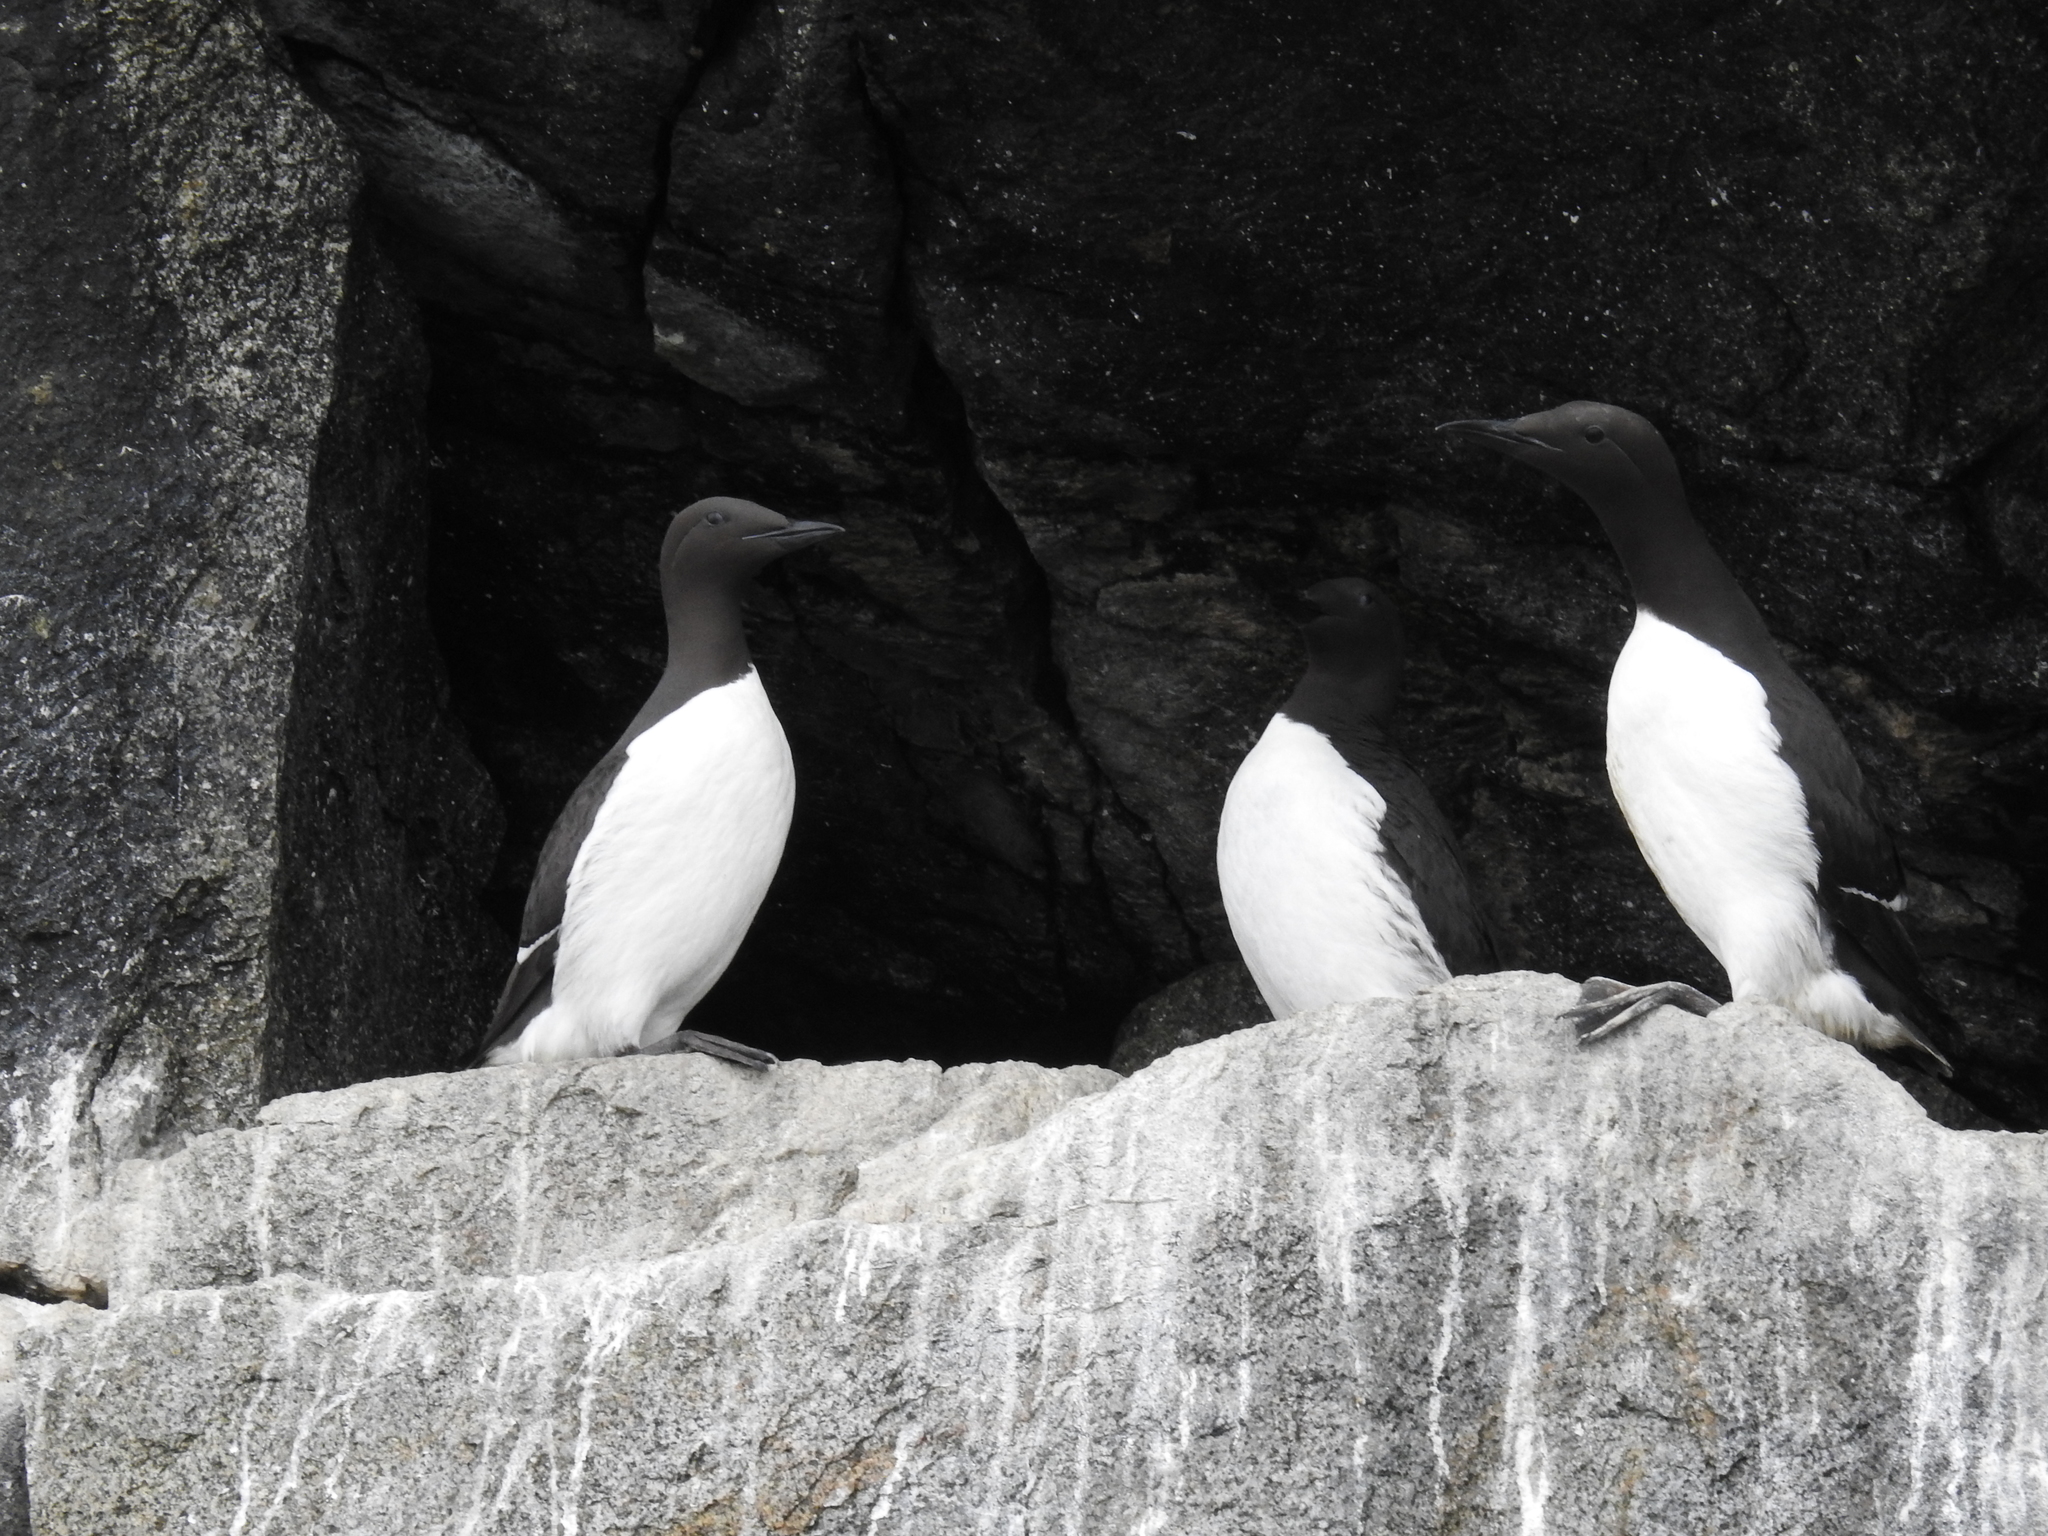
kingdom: Animalia
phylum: Chordata
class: Aves
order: Charadriiformes
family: Alcidae
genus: Uria
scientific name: Uria aalge
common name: Common murre
